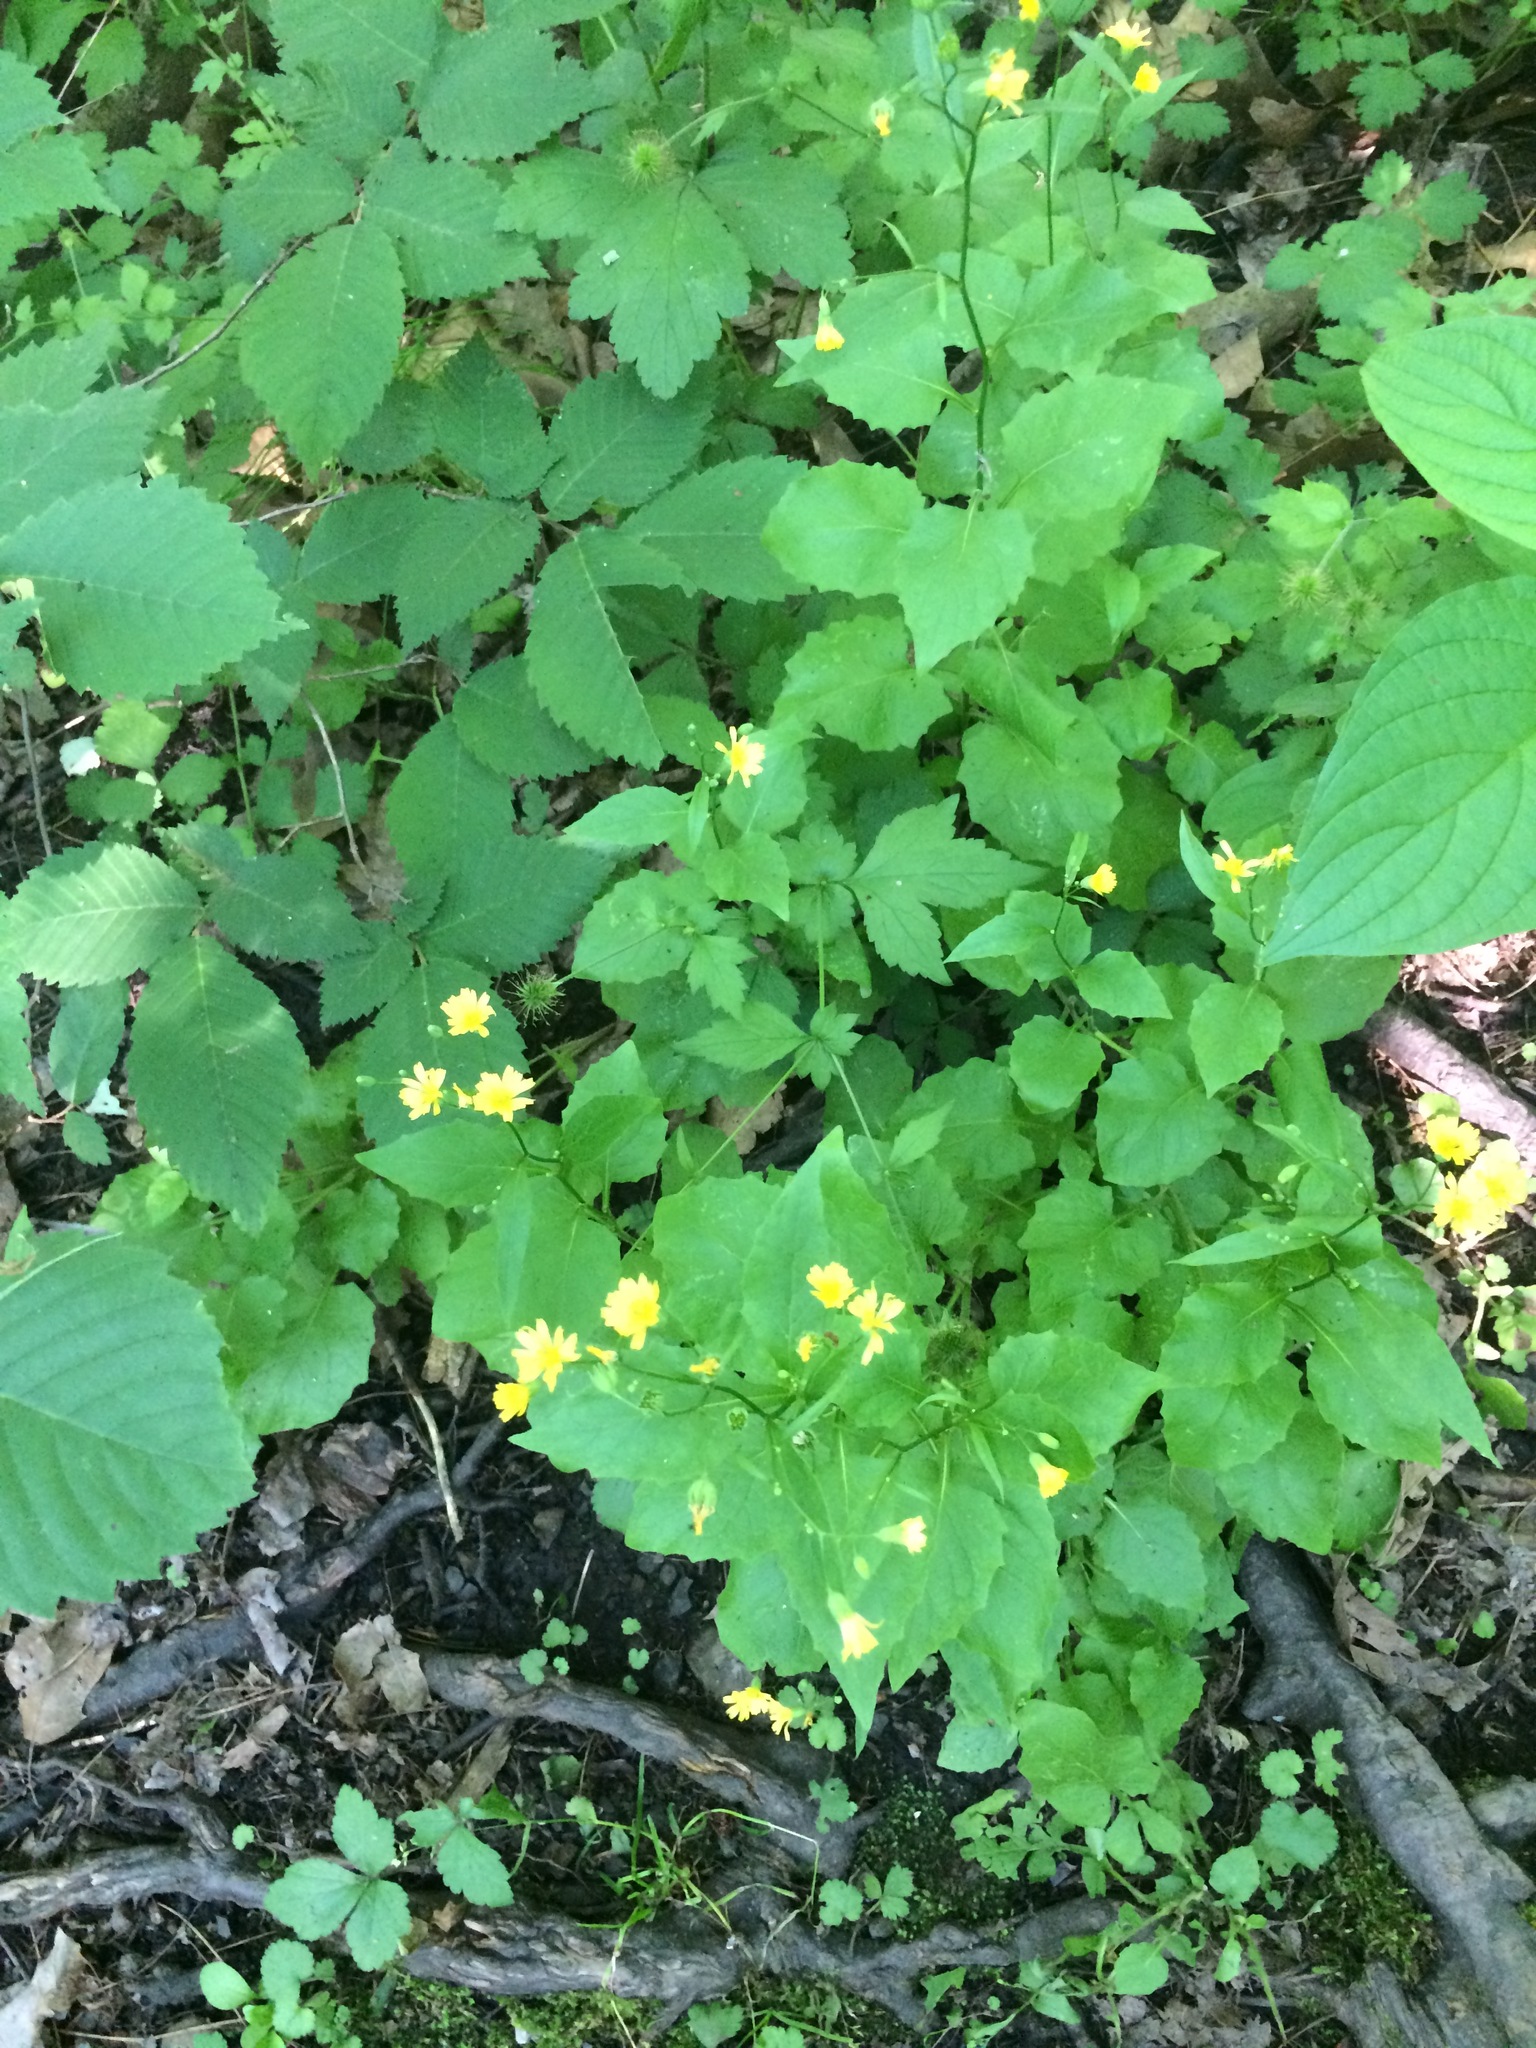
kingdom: Plantae
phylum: Tracheophyta
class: Magnoliopsida
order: Asterales
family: Asteraceae
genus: Lapsana
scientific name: Lapsana communis
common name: Nipplewort
